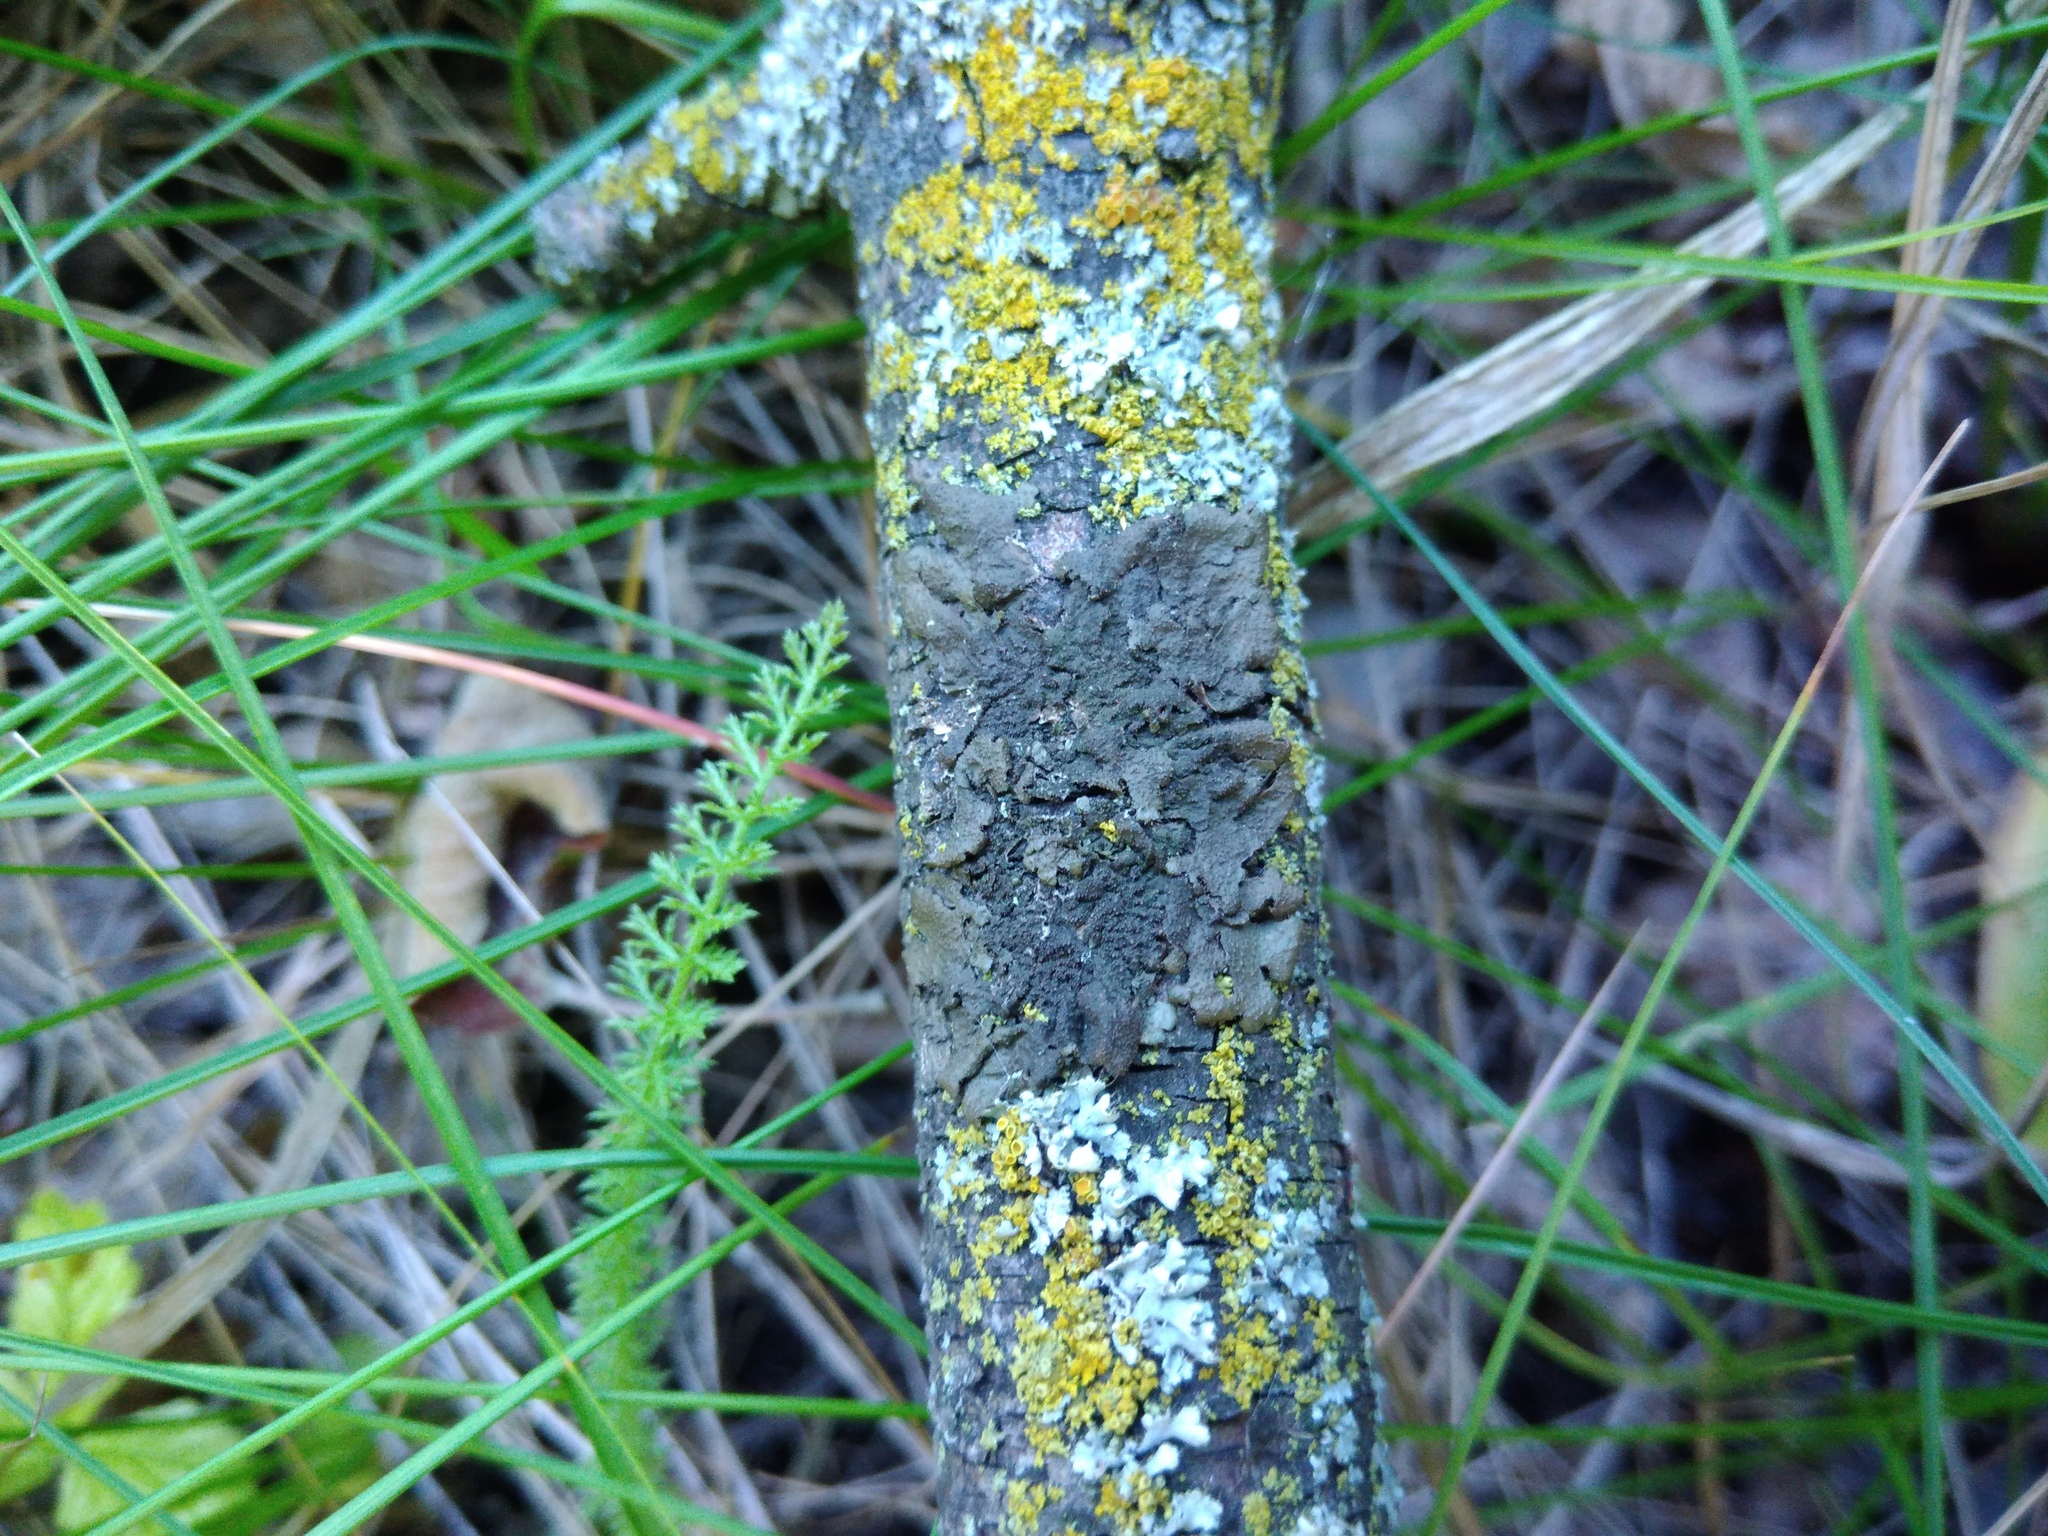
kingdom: Fungi
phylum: Ascomycota
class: Lecanoromycetes
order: Lecanorales
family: Parmeliaceae
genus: Melanohalea
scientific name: Melanohalea exasperata
